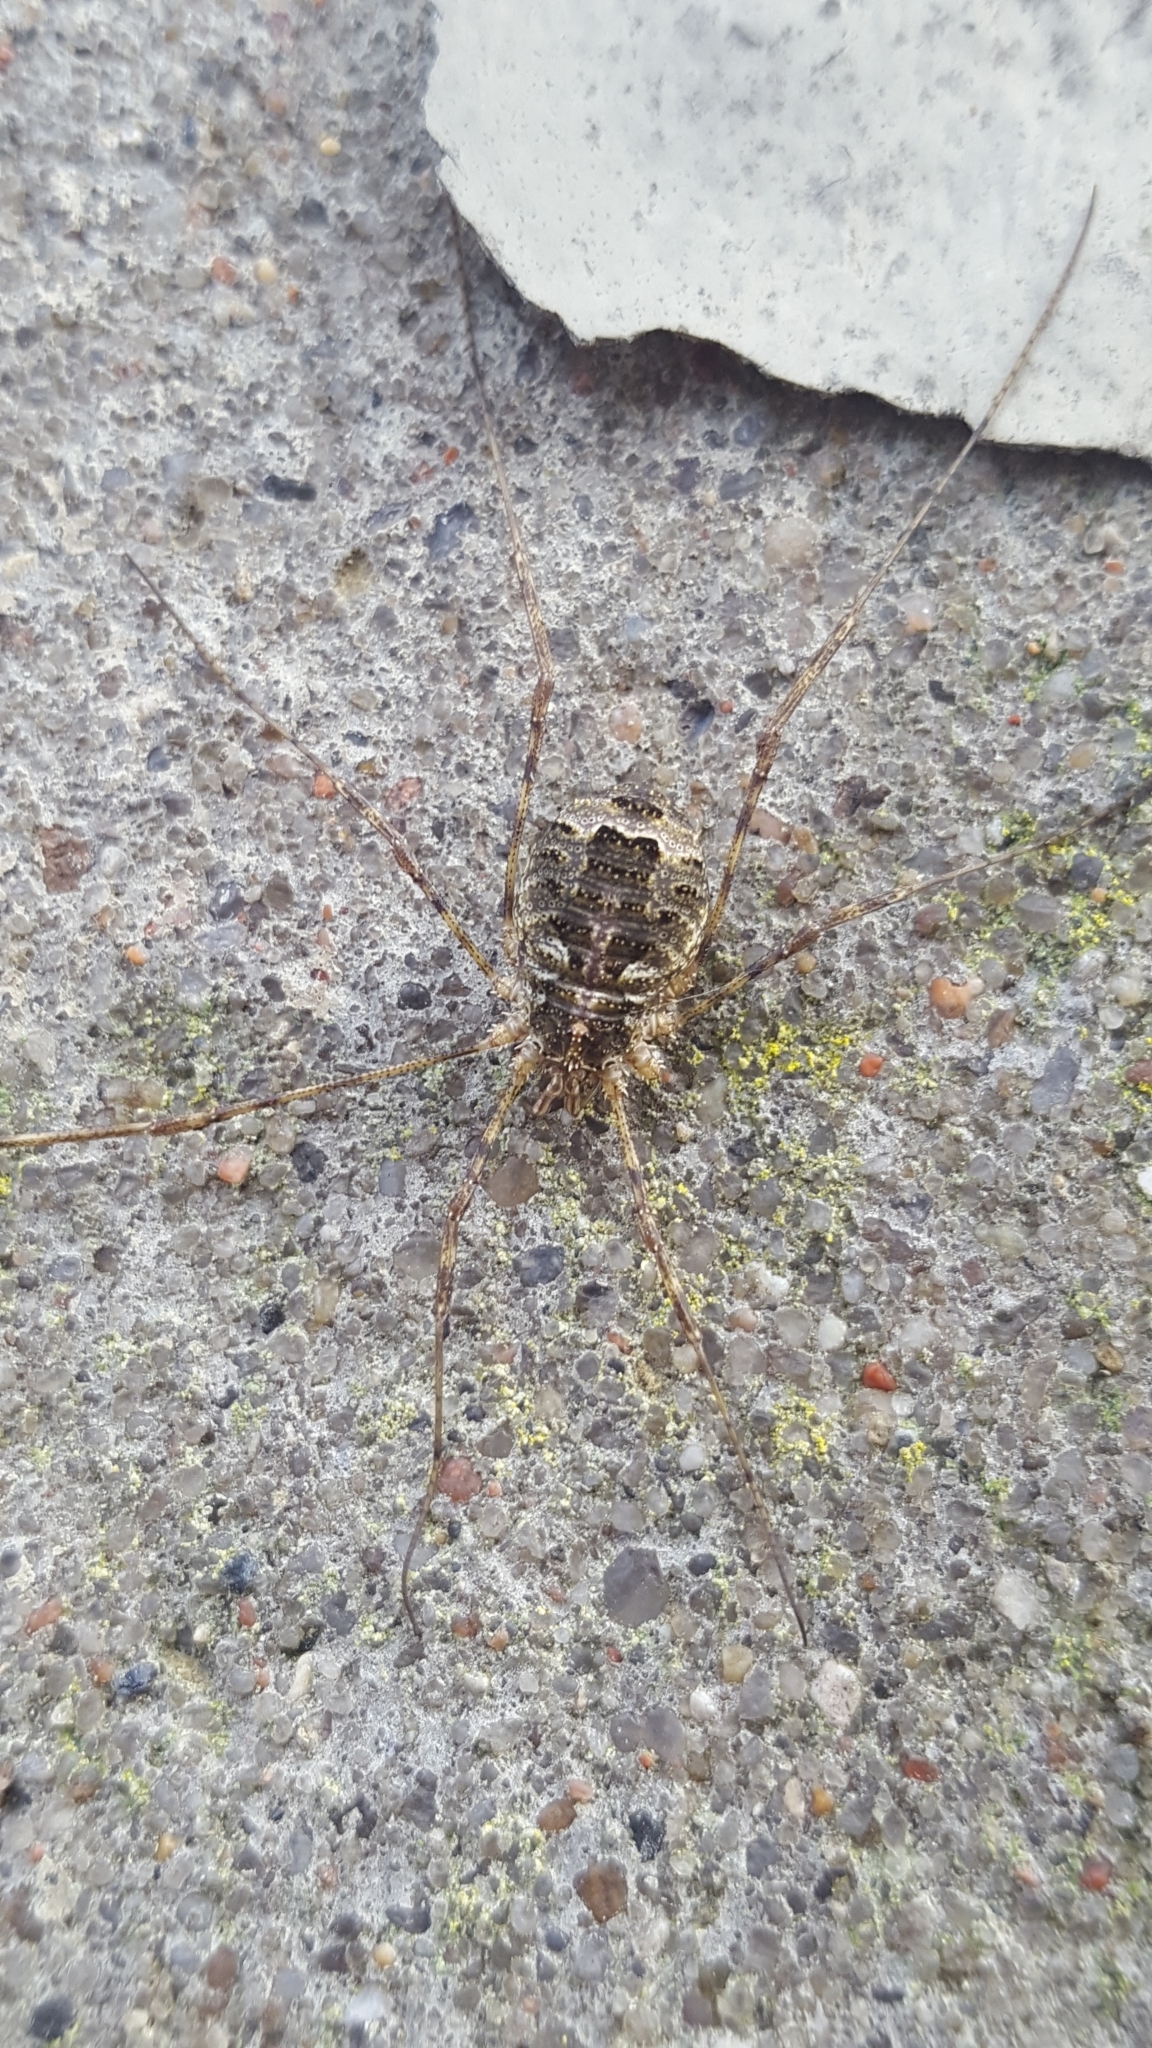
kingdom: Animalia
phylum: Arthropoda
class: Arachnida
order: Opiliones
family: Phalangiidae
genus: Lacinius
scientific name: Lacinius dentiger
